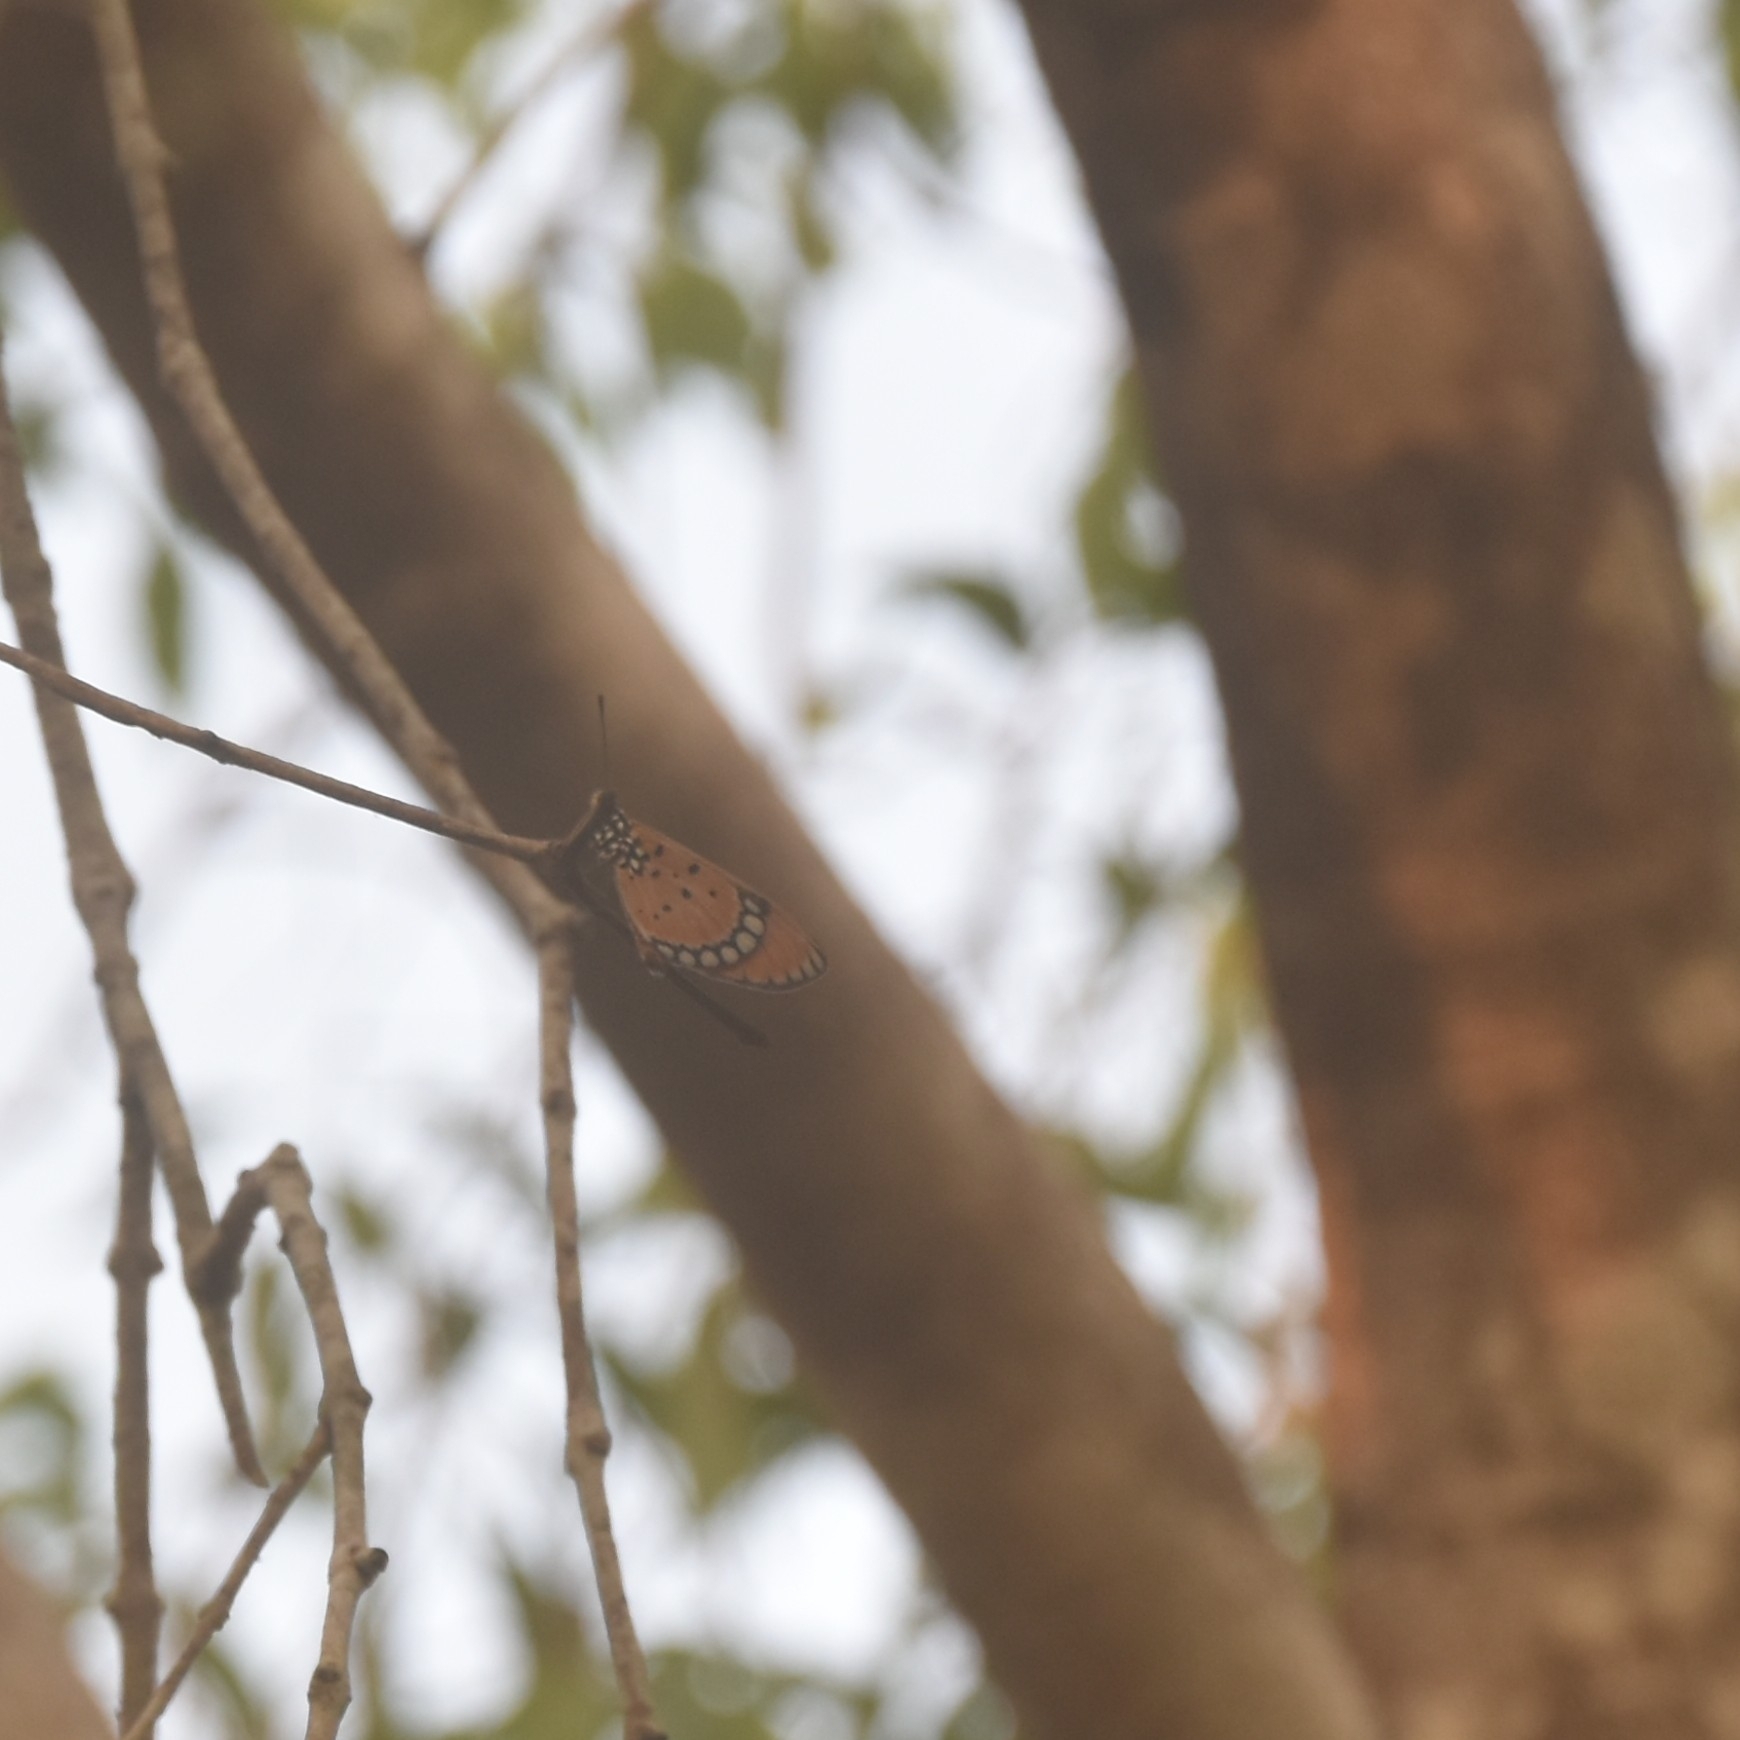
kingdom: Animalia
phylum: Arthropoda
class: Insecta
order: Lepidoptera
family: Nymphalidae
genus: Acraea
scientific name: Acraea terpsicore
